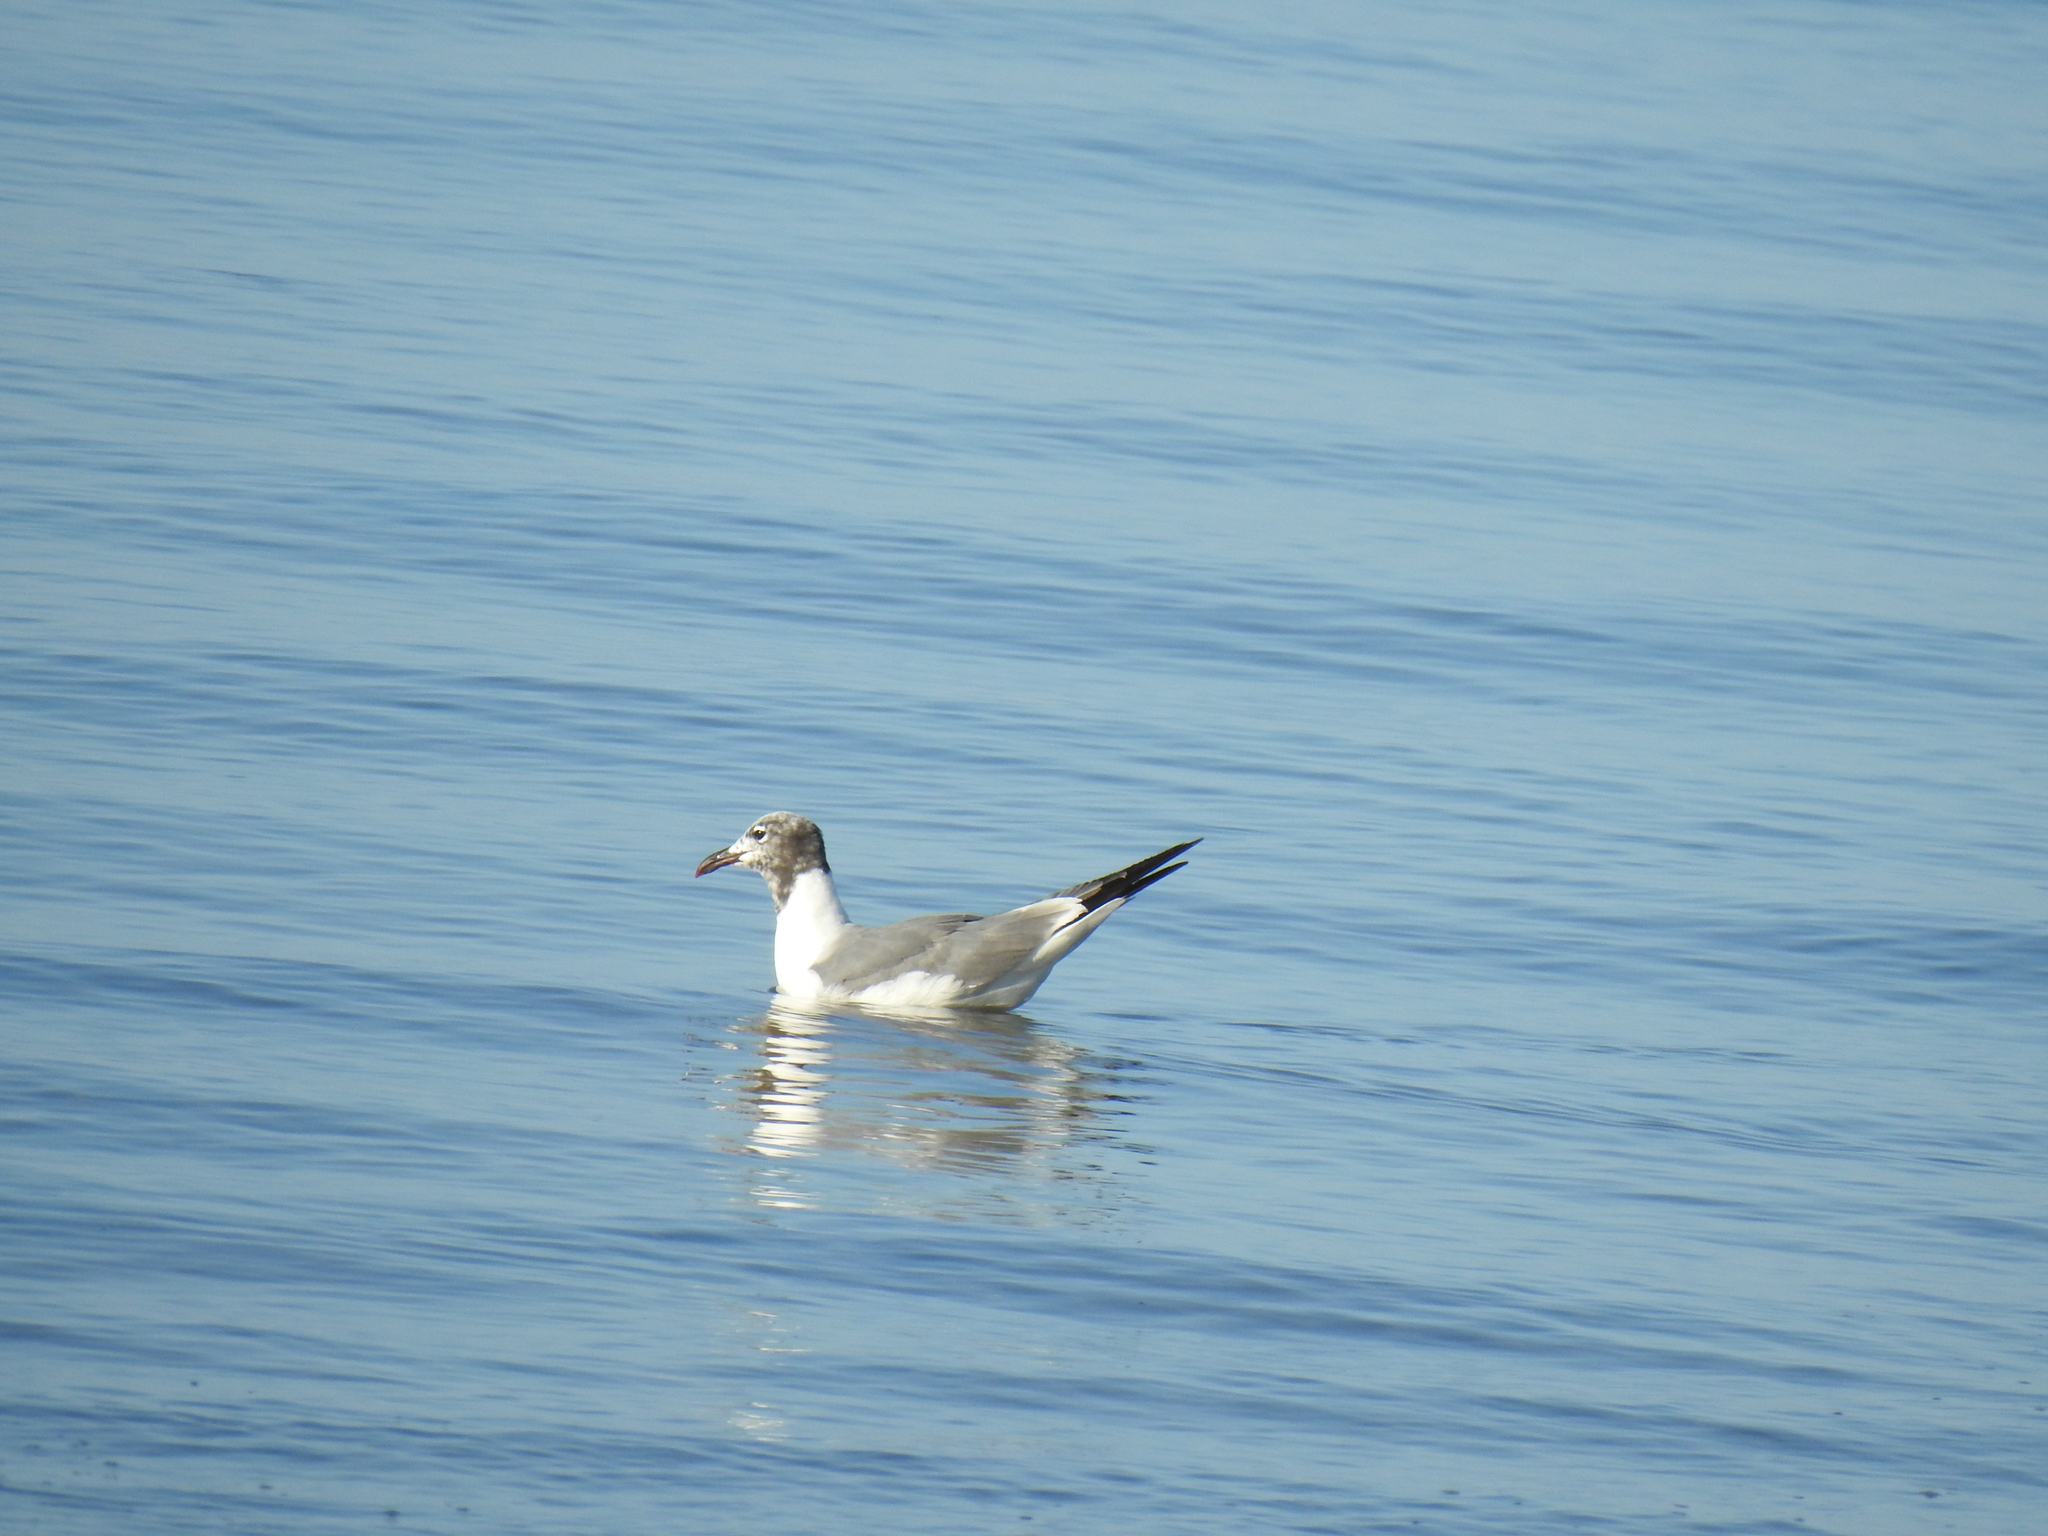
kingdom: Animalia
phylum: Chordata
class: Aves
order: Charadriiformes
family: Laridae
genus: Leucophaeus
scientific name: Leucophaeus atricilla
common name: Laughing gull
